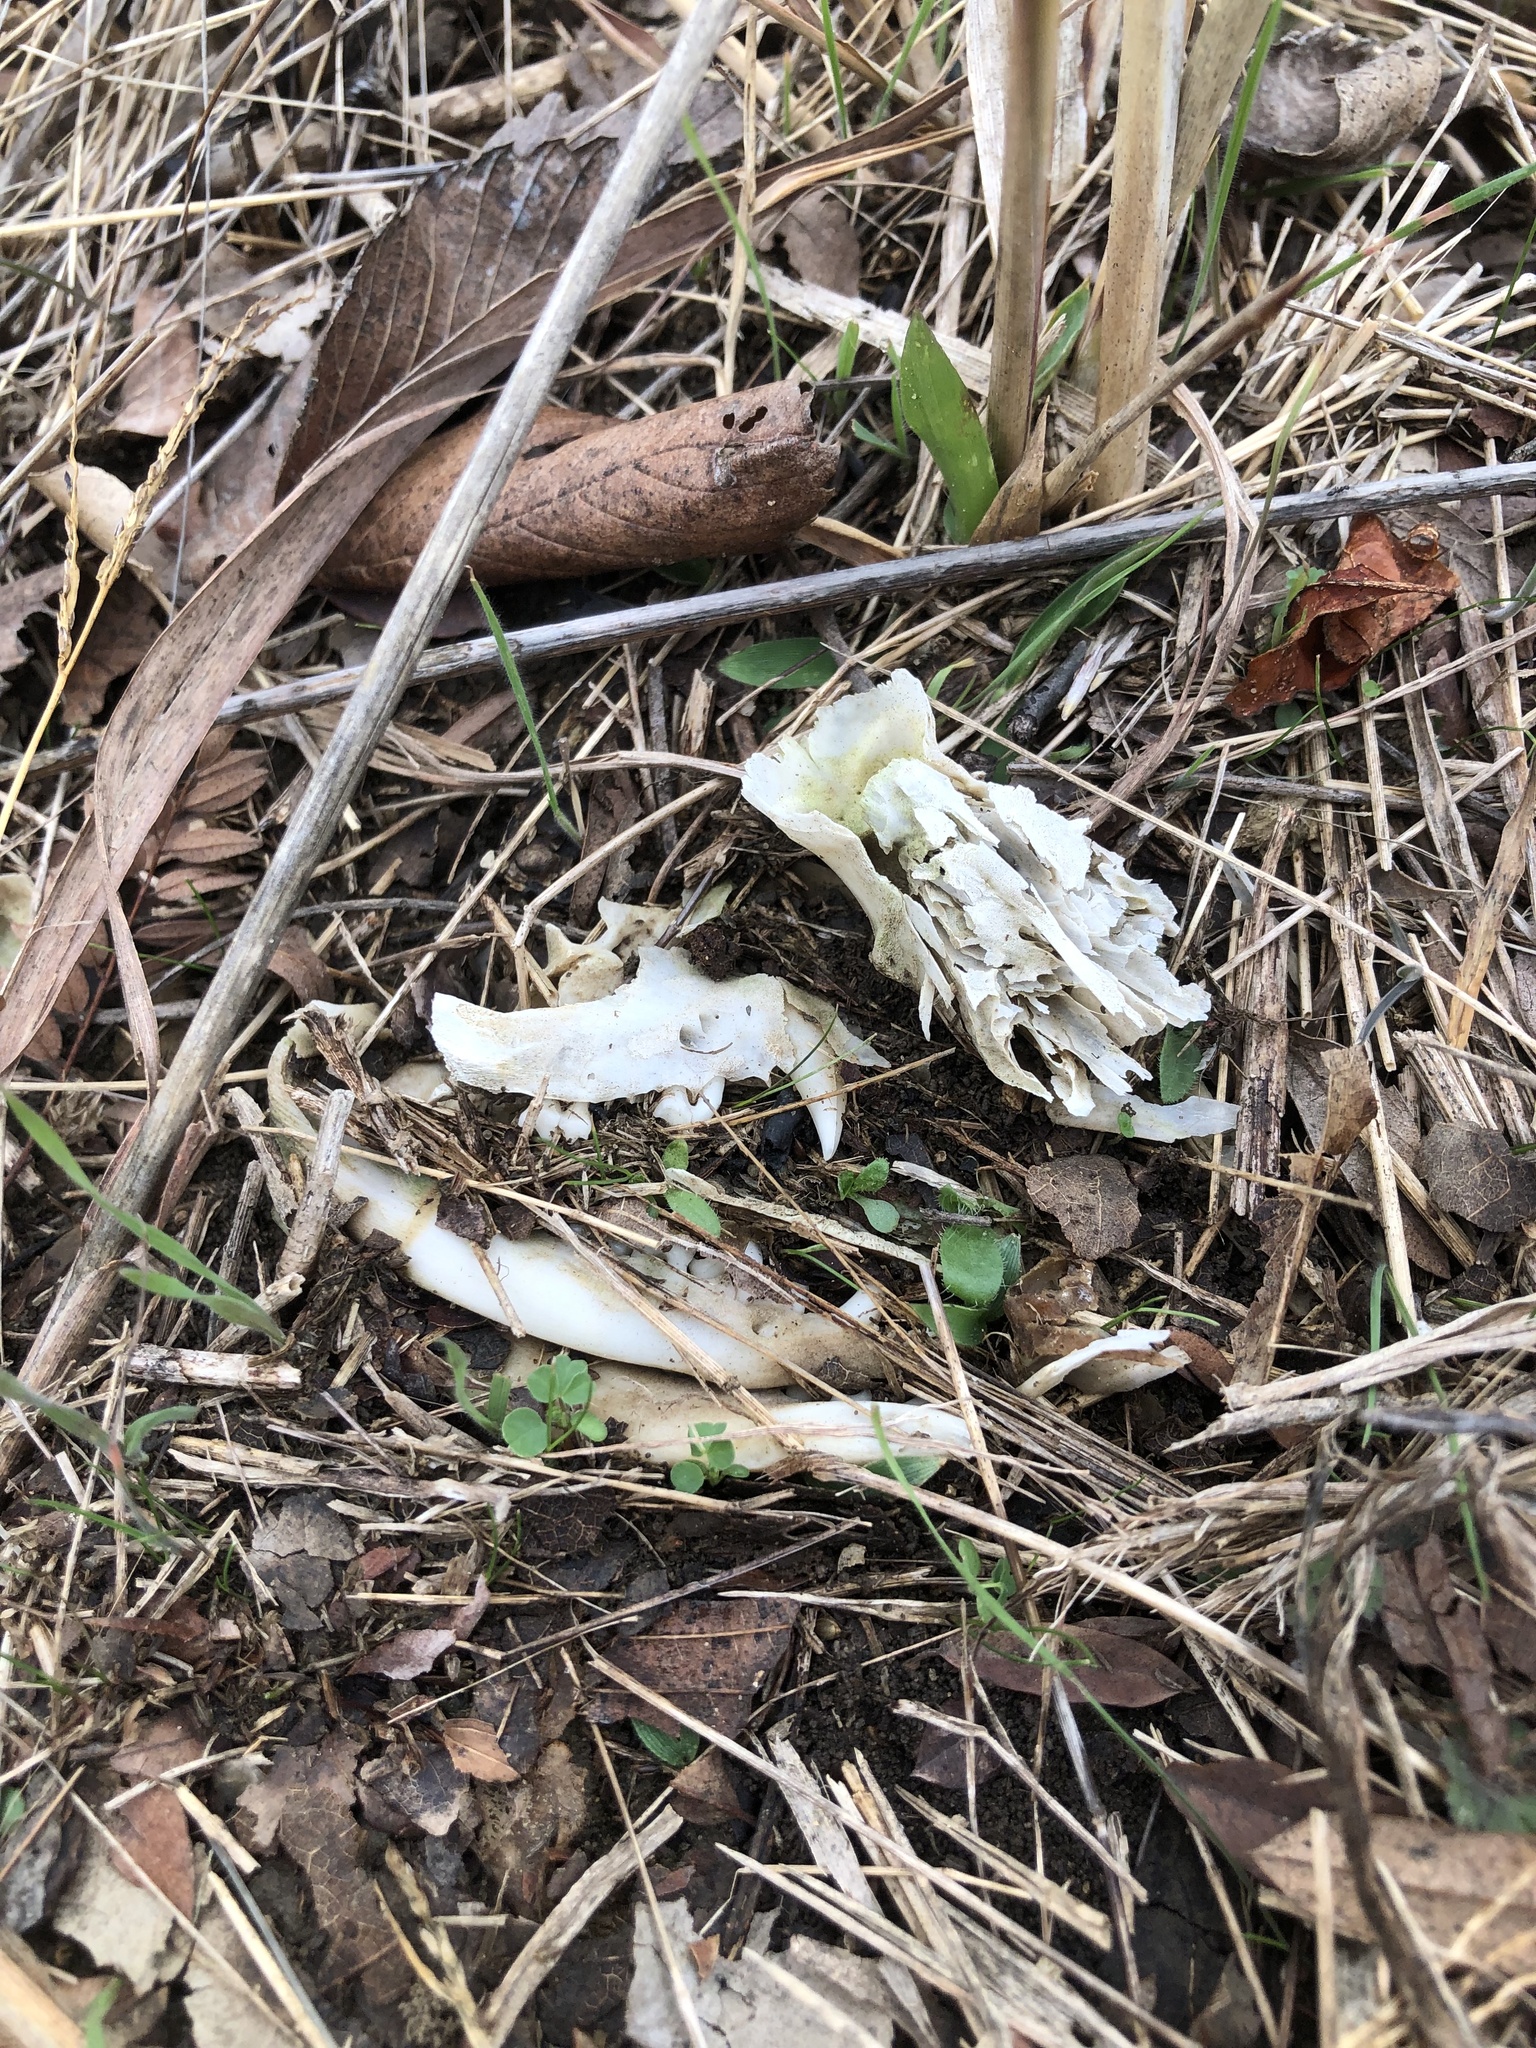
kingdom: Animalia
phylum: Chordata
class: Mammalia
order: Didelphimorphia
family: Didelphidae
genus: Didelphis
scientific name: Didelphis virginiana
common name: Virginia opossum
